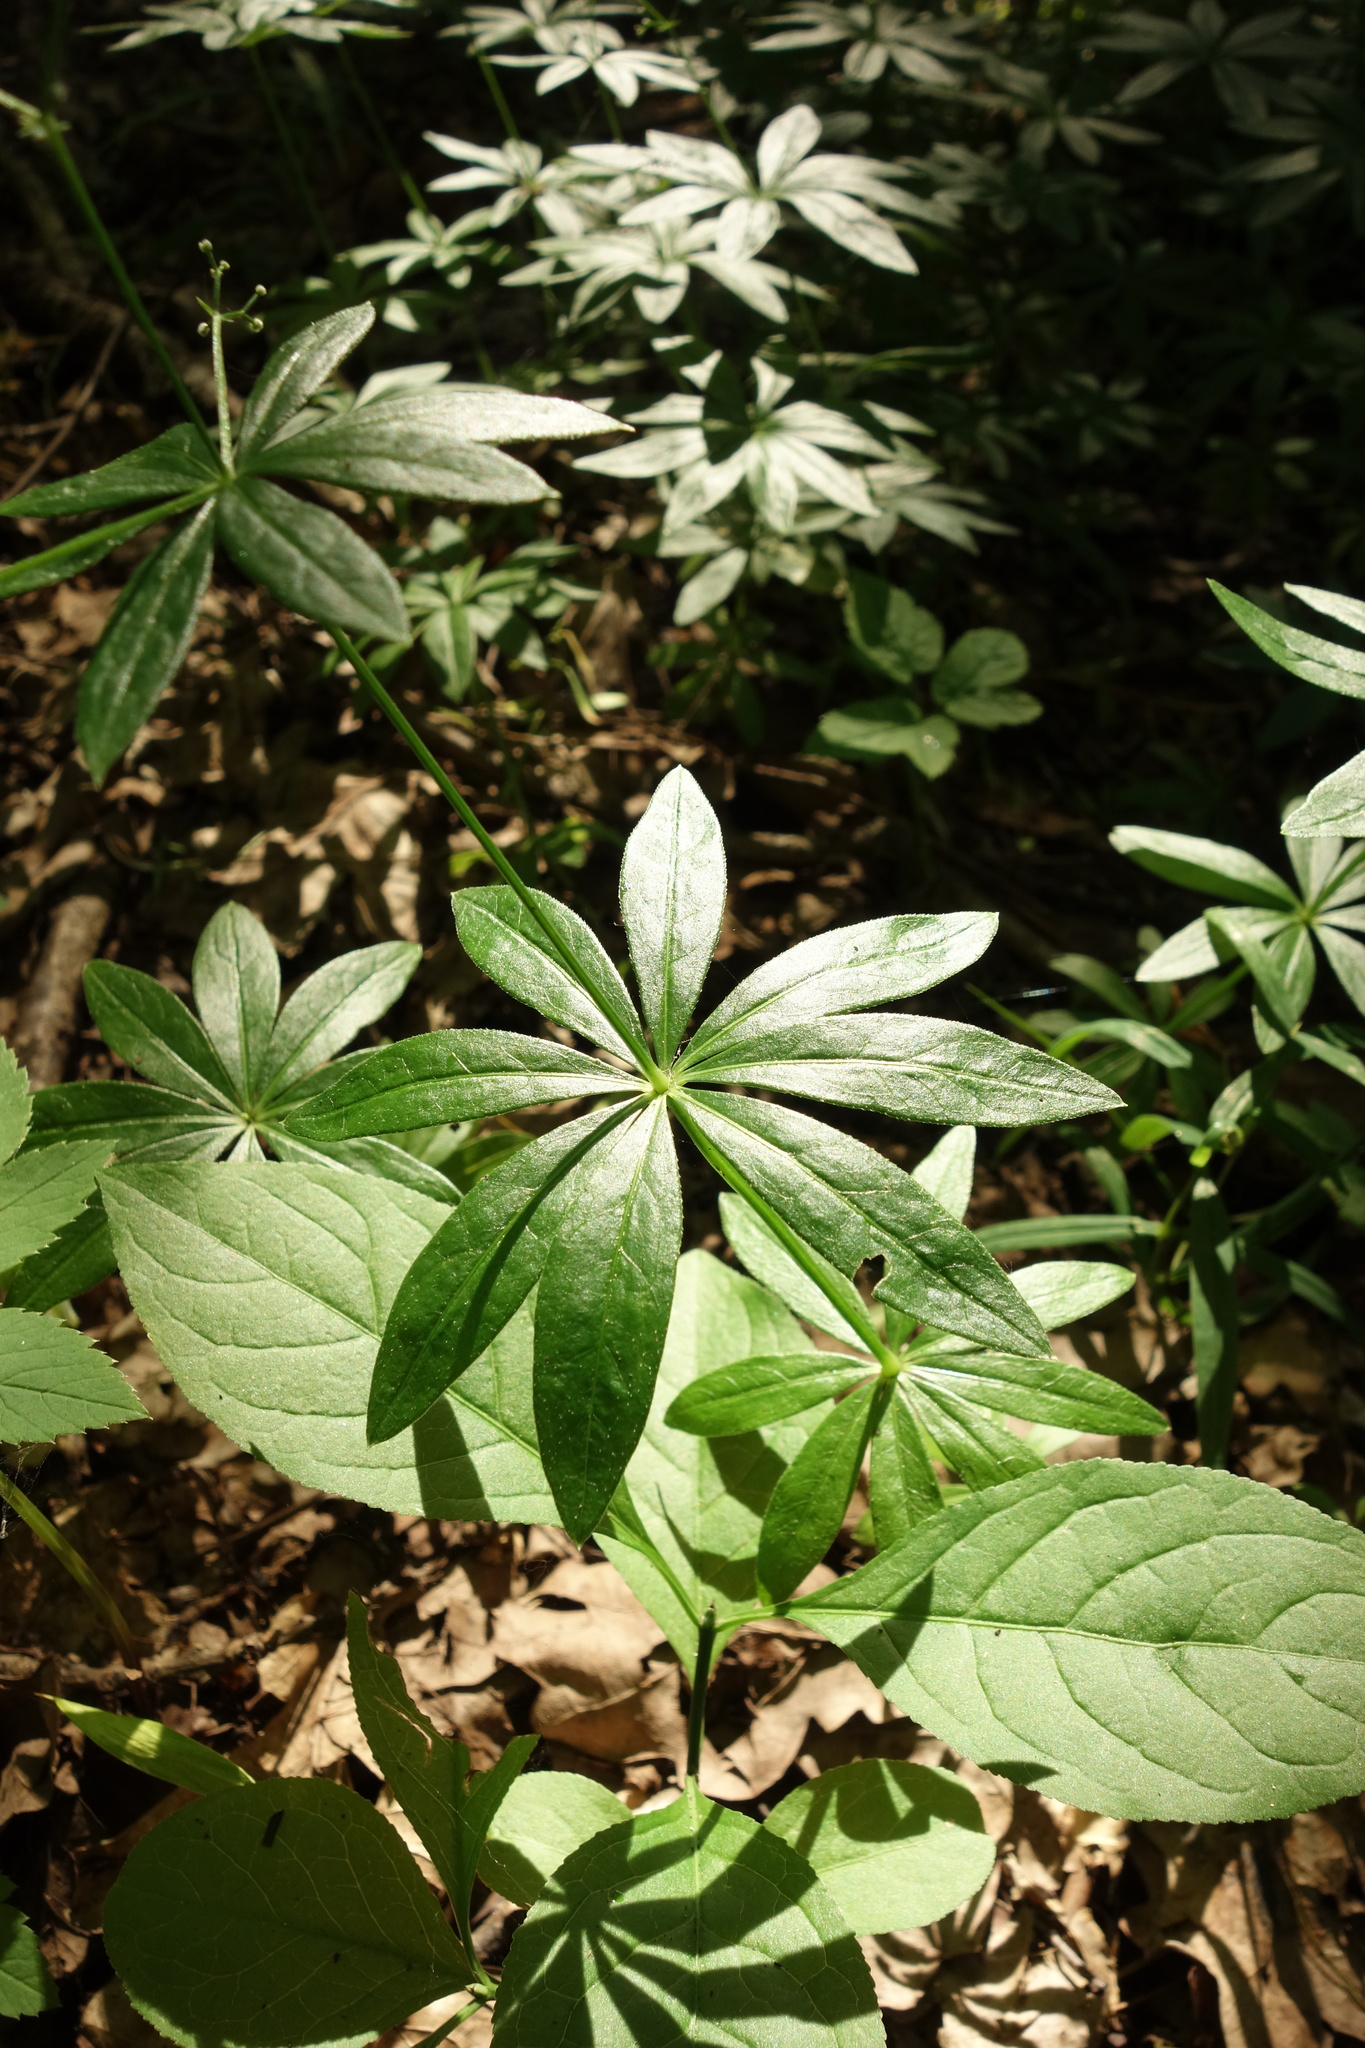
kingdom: Plantae
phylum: Tracheophyta
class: Magnoliopsida
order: Gentianales
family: Rubiaceae
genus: Galium
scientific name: Galium odoratum
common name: Sweet woodruff
